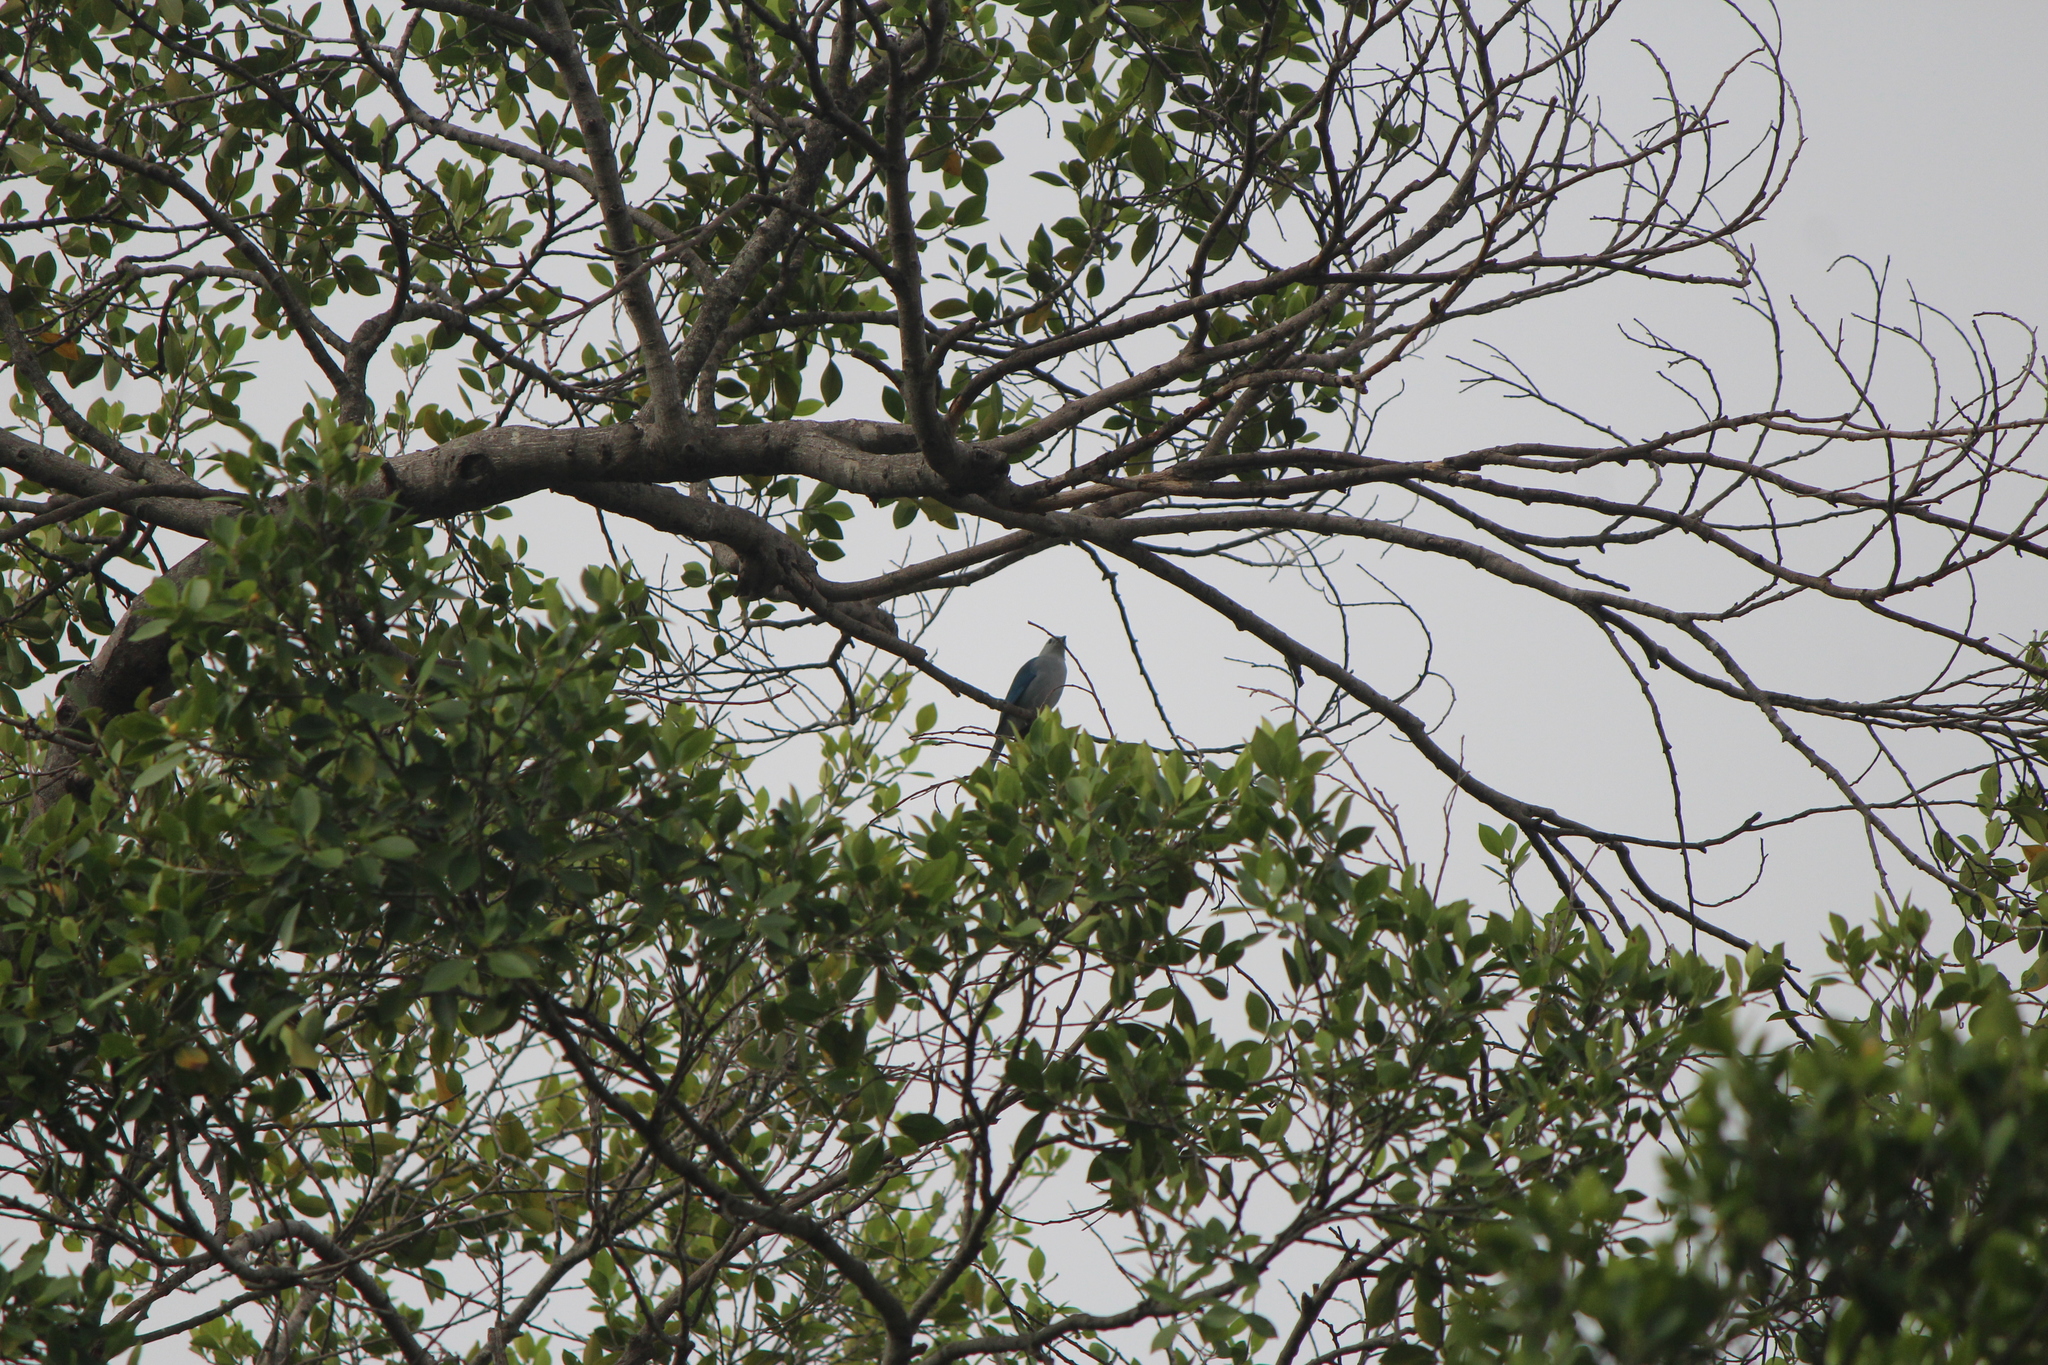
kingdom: Animalia
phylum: Chordata
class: Aves
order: Passeriformes
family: Thraupidae
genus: Thraupis
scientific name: Thraupis episcopus
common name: Blue-grey tanager
